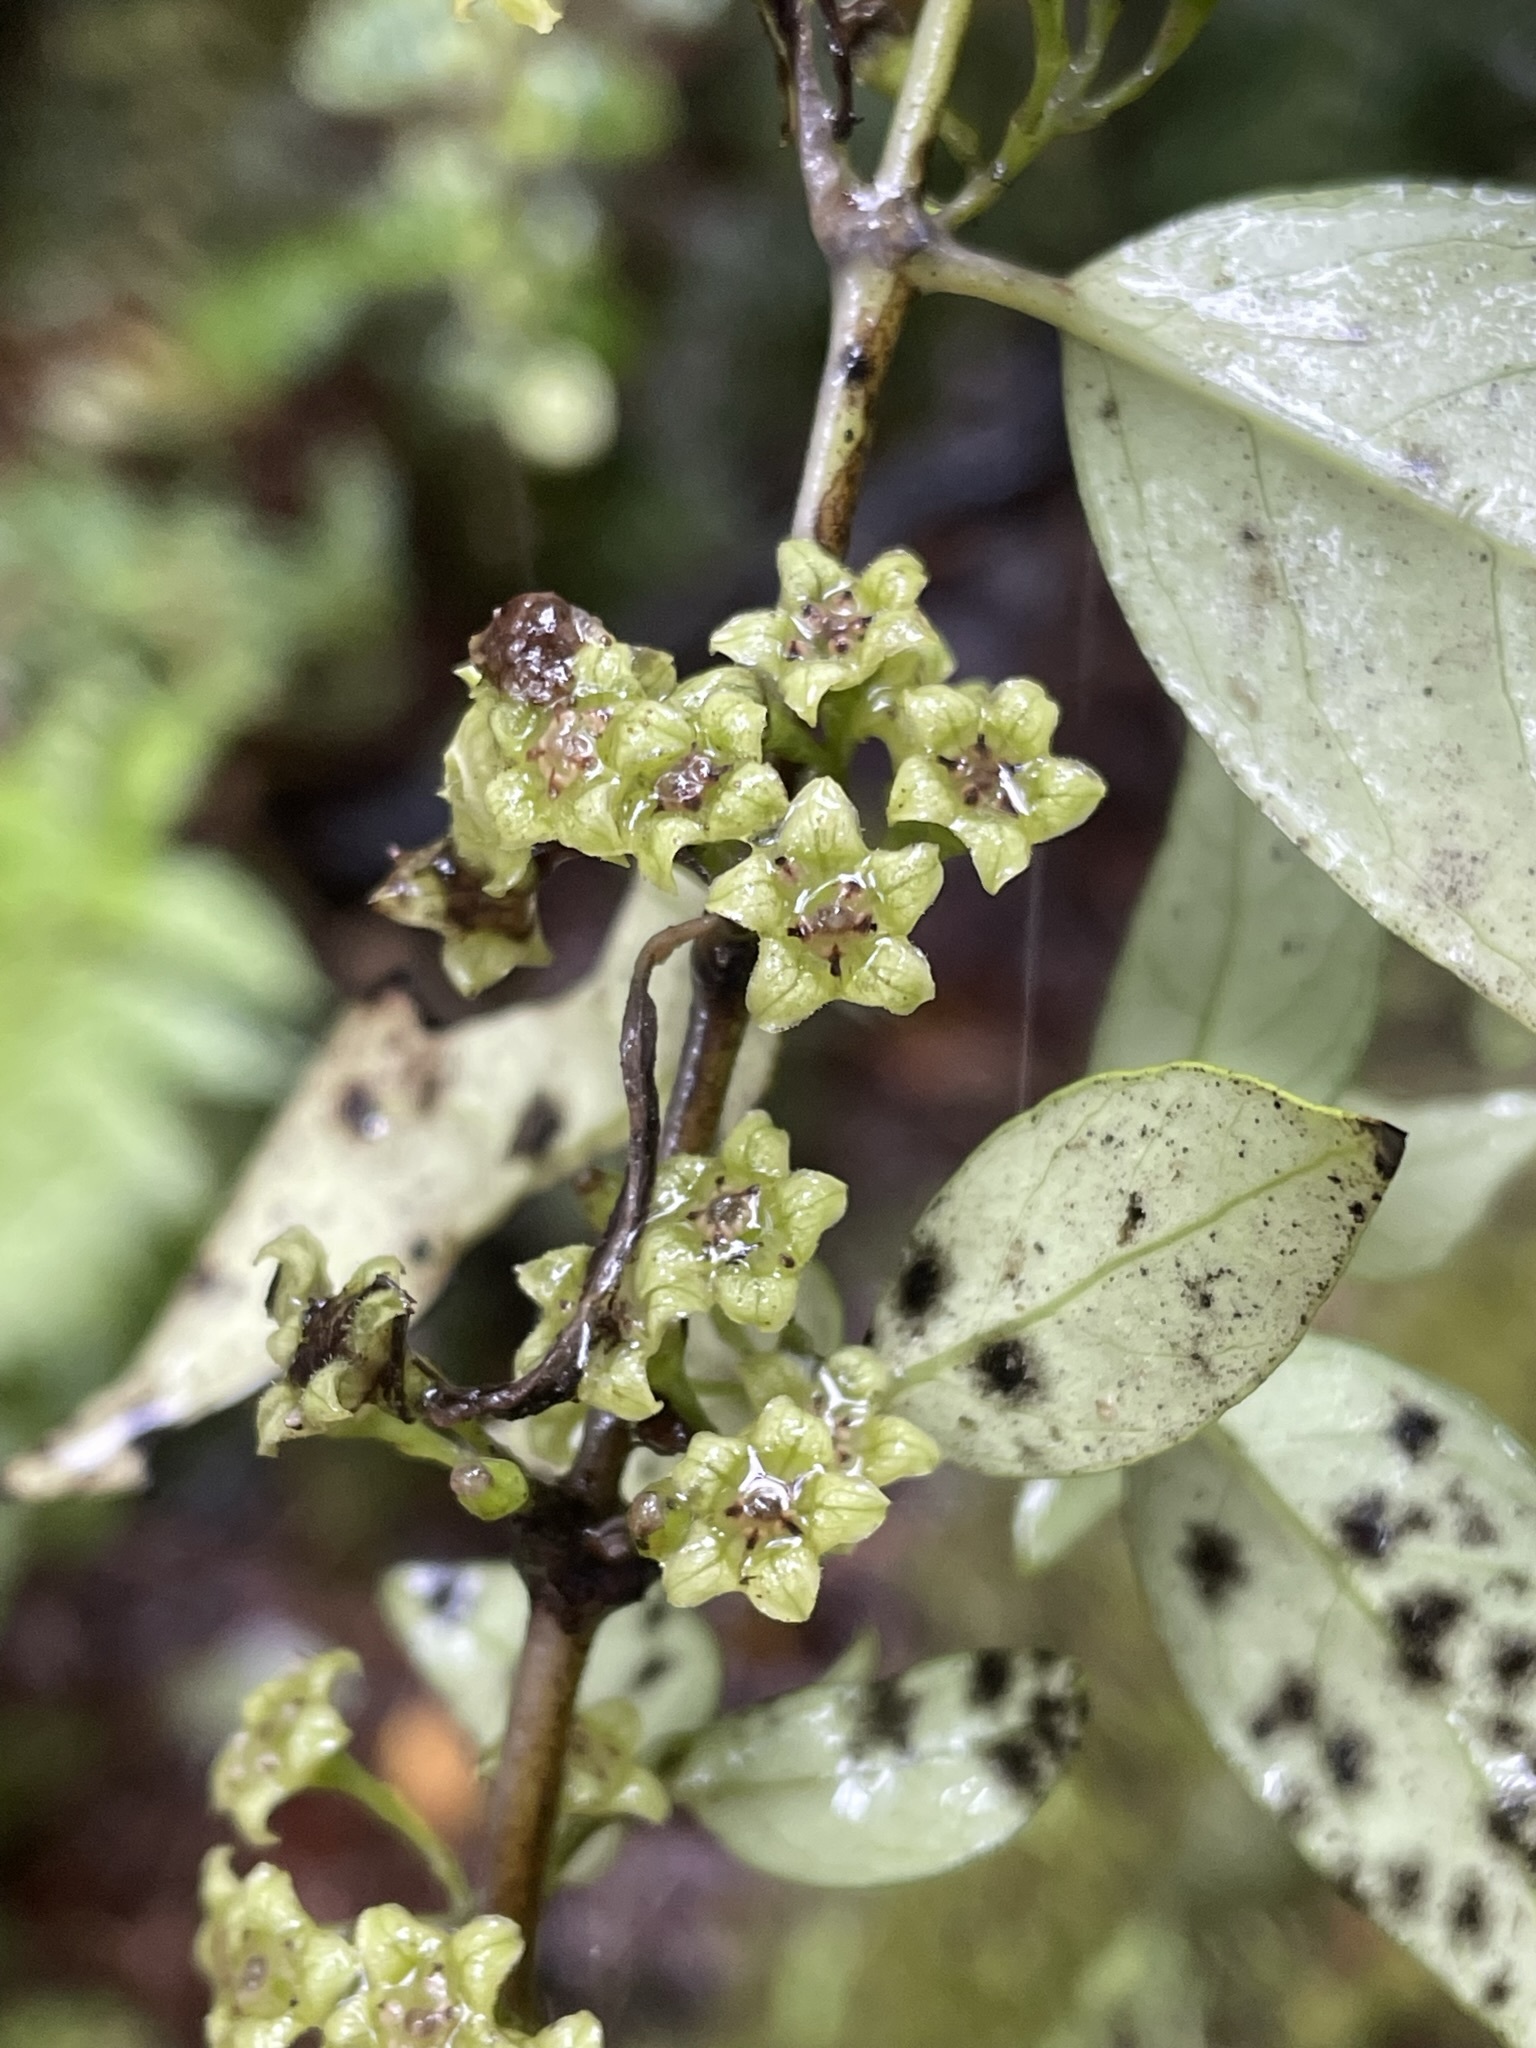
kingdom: Plantae
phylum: Tracheophyta
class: Magnoliopsida
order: Gentianales
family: Loganiaceae
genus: Geniostoma
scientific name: Geniostoma ligustrifolium
